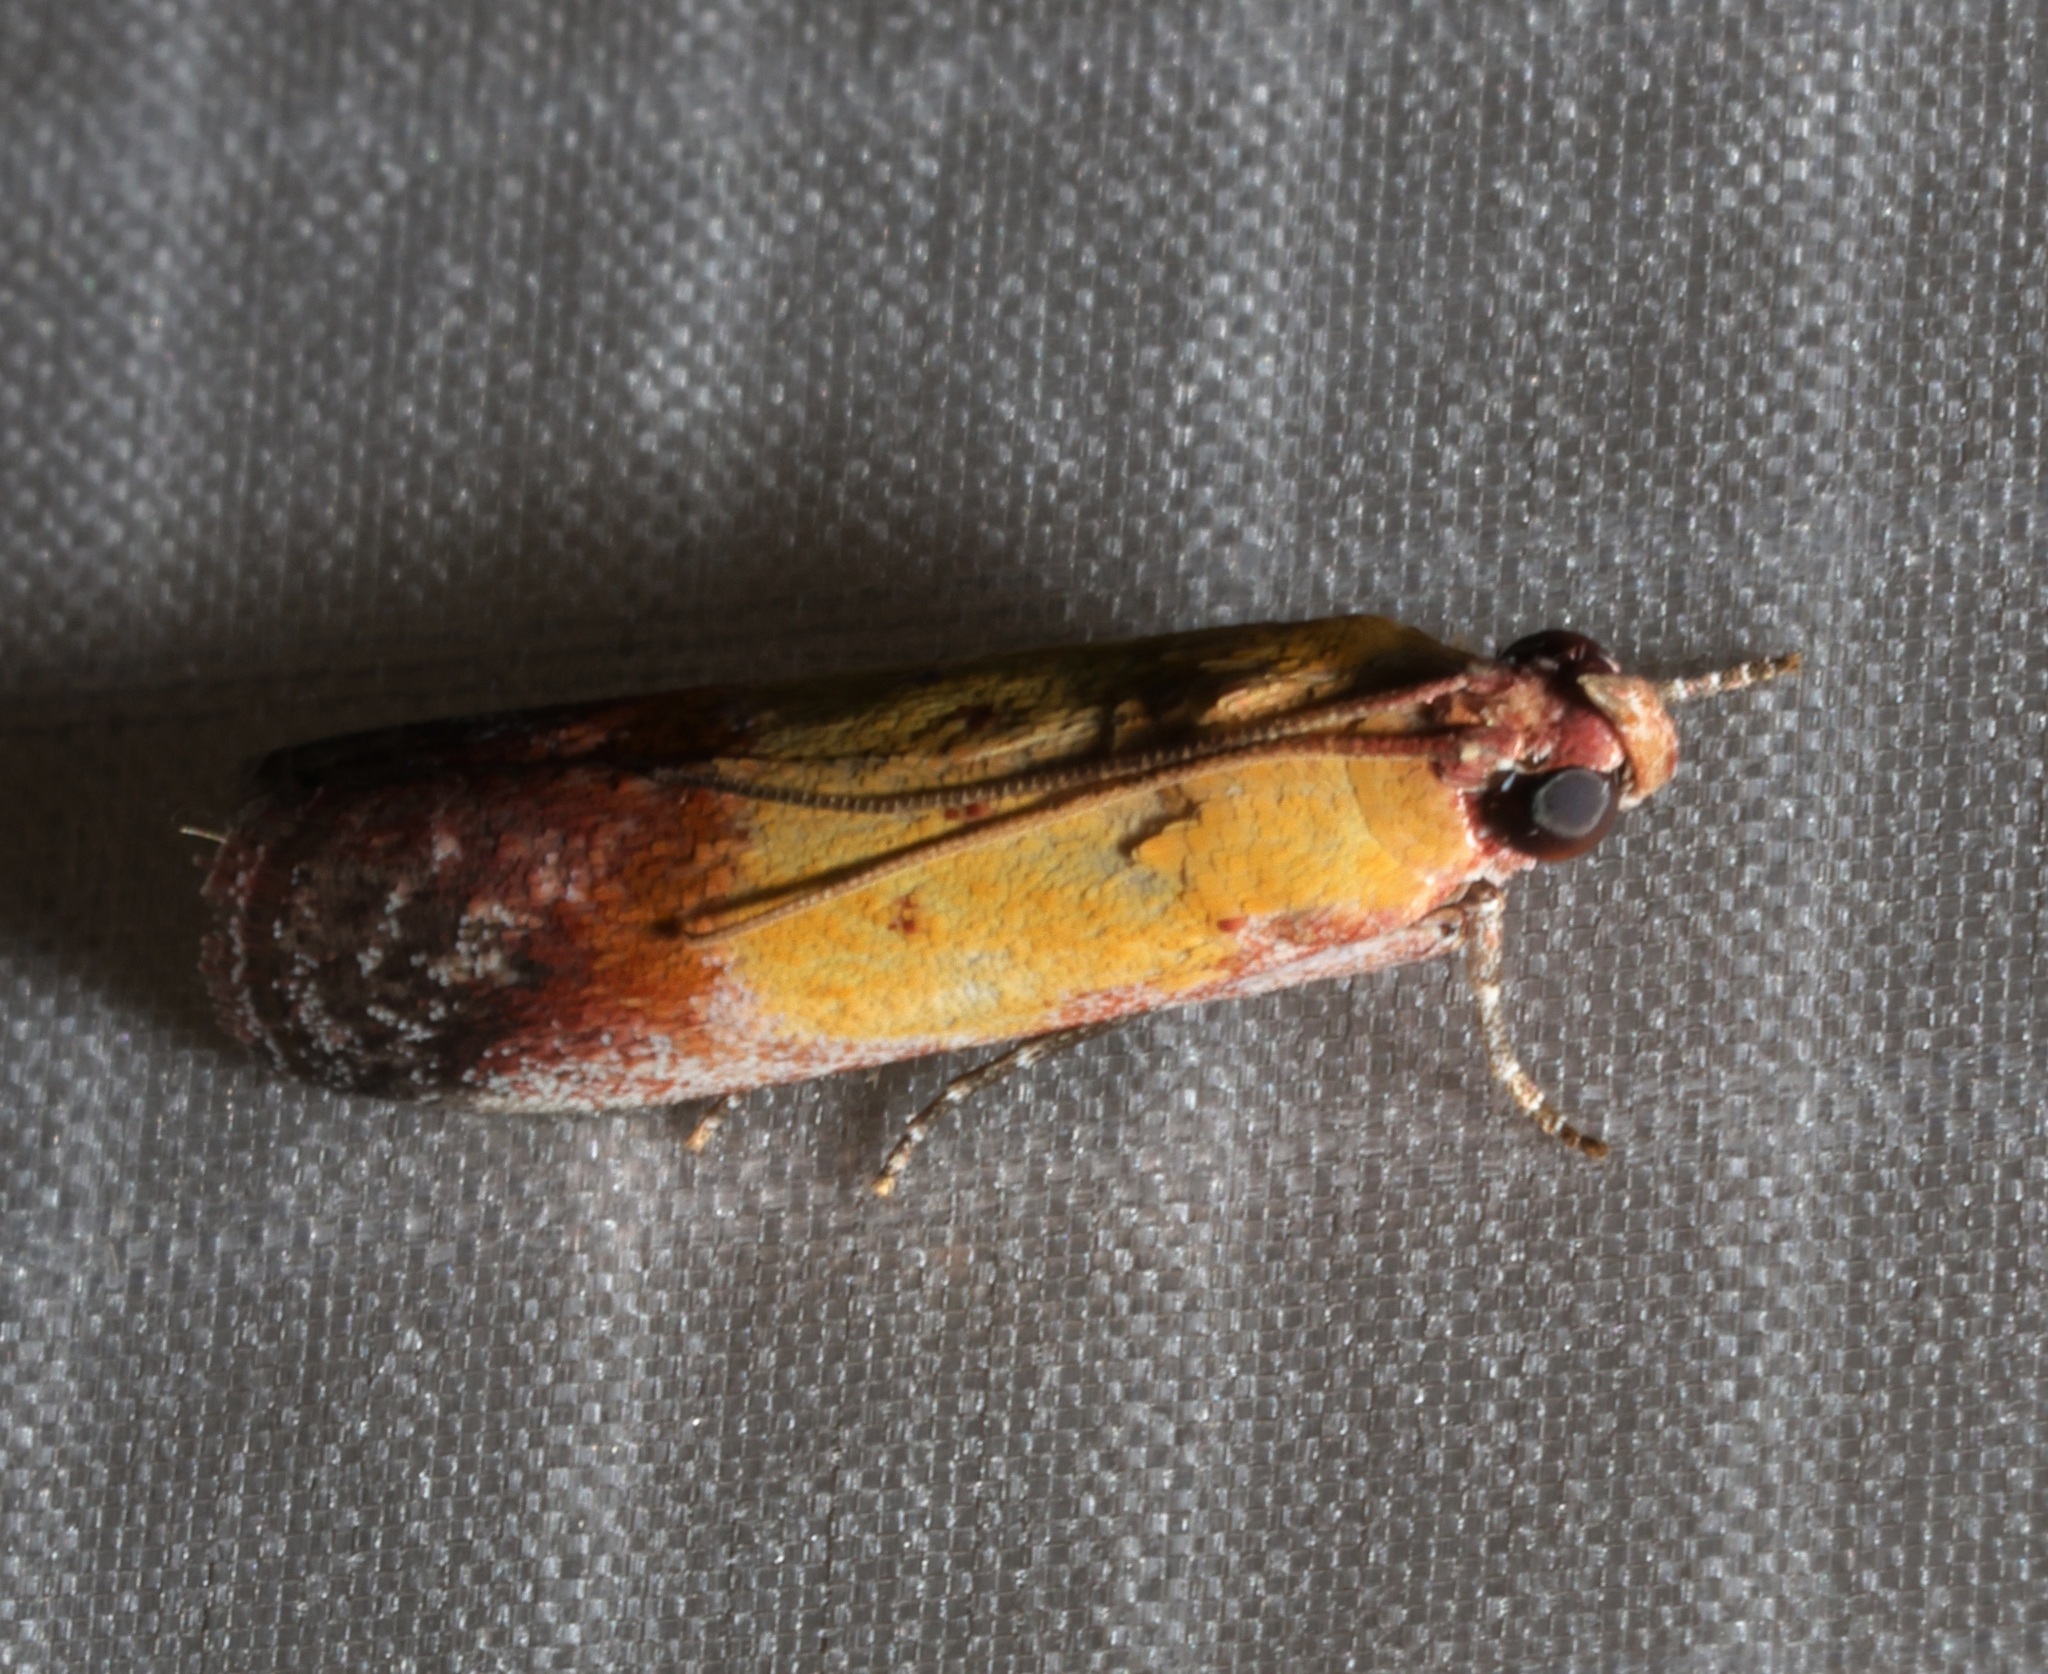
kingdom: Animalia
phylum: Arthropoda
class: Insecta
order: Lepidoptera
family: Pyralidae
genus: Piesmopoda
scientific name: Piesmopoda
